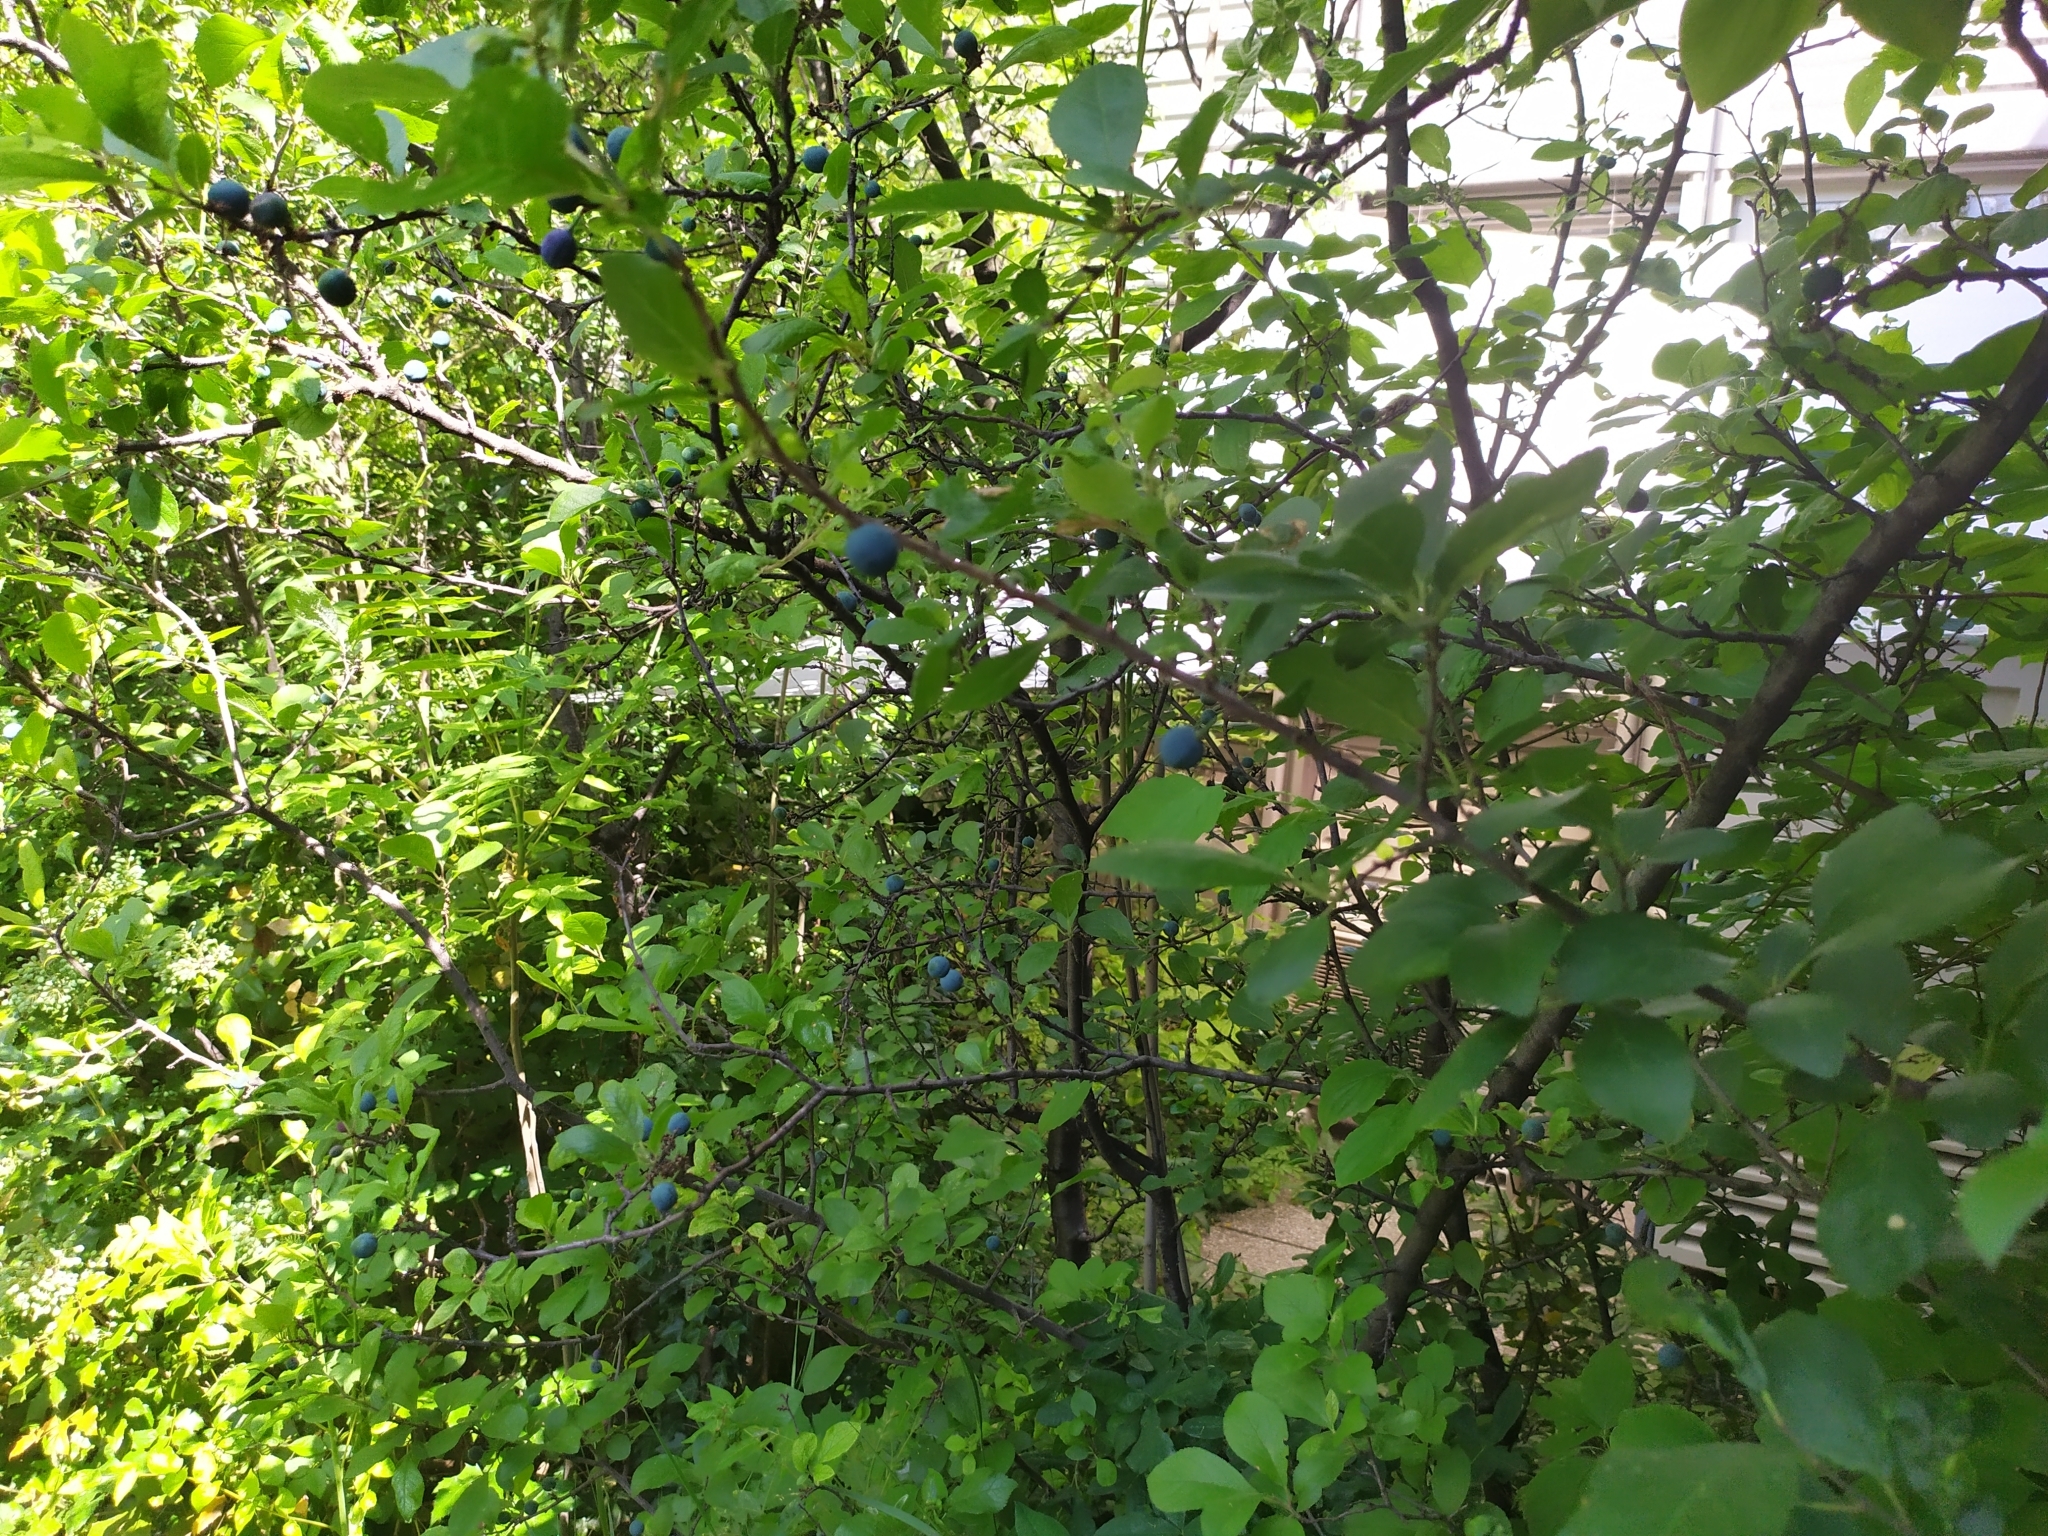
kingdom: Plantae
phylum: Tracheophyta
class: Magnoliopsida
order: Rosales
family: Rosaceae
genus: Prunus
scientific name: Prunus spinosa
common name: Blackthorn
